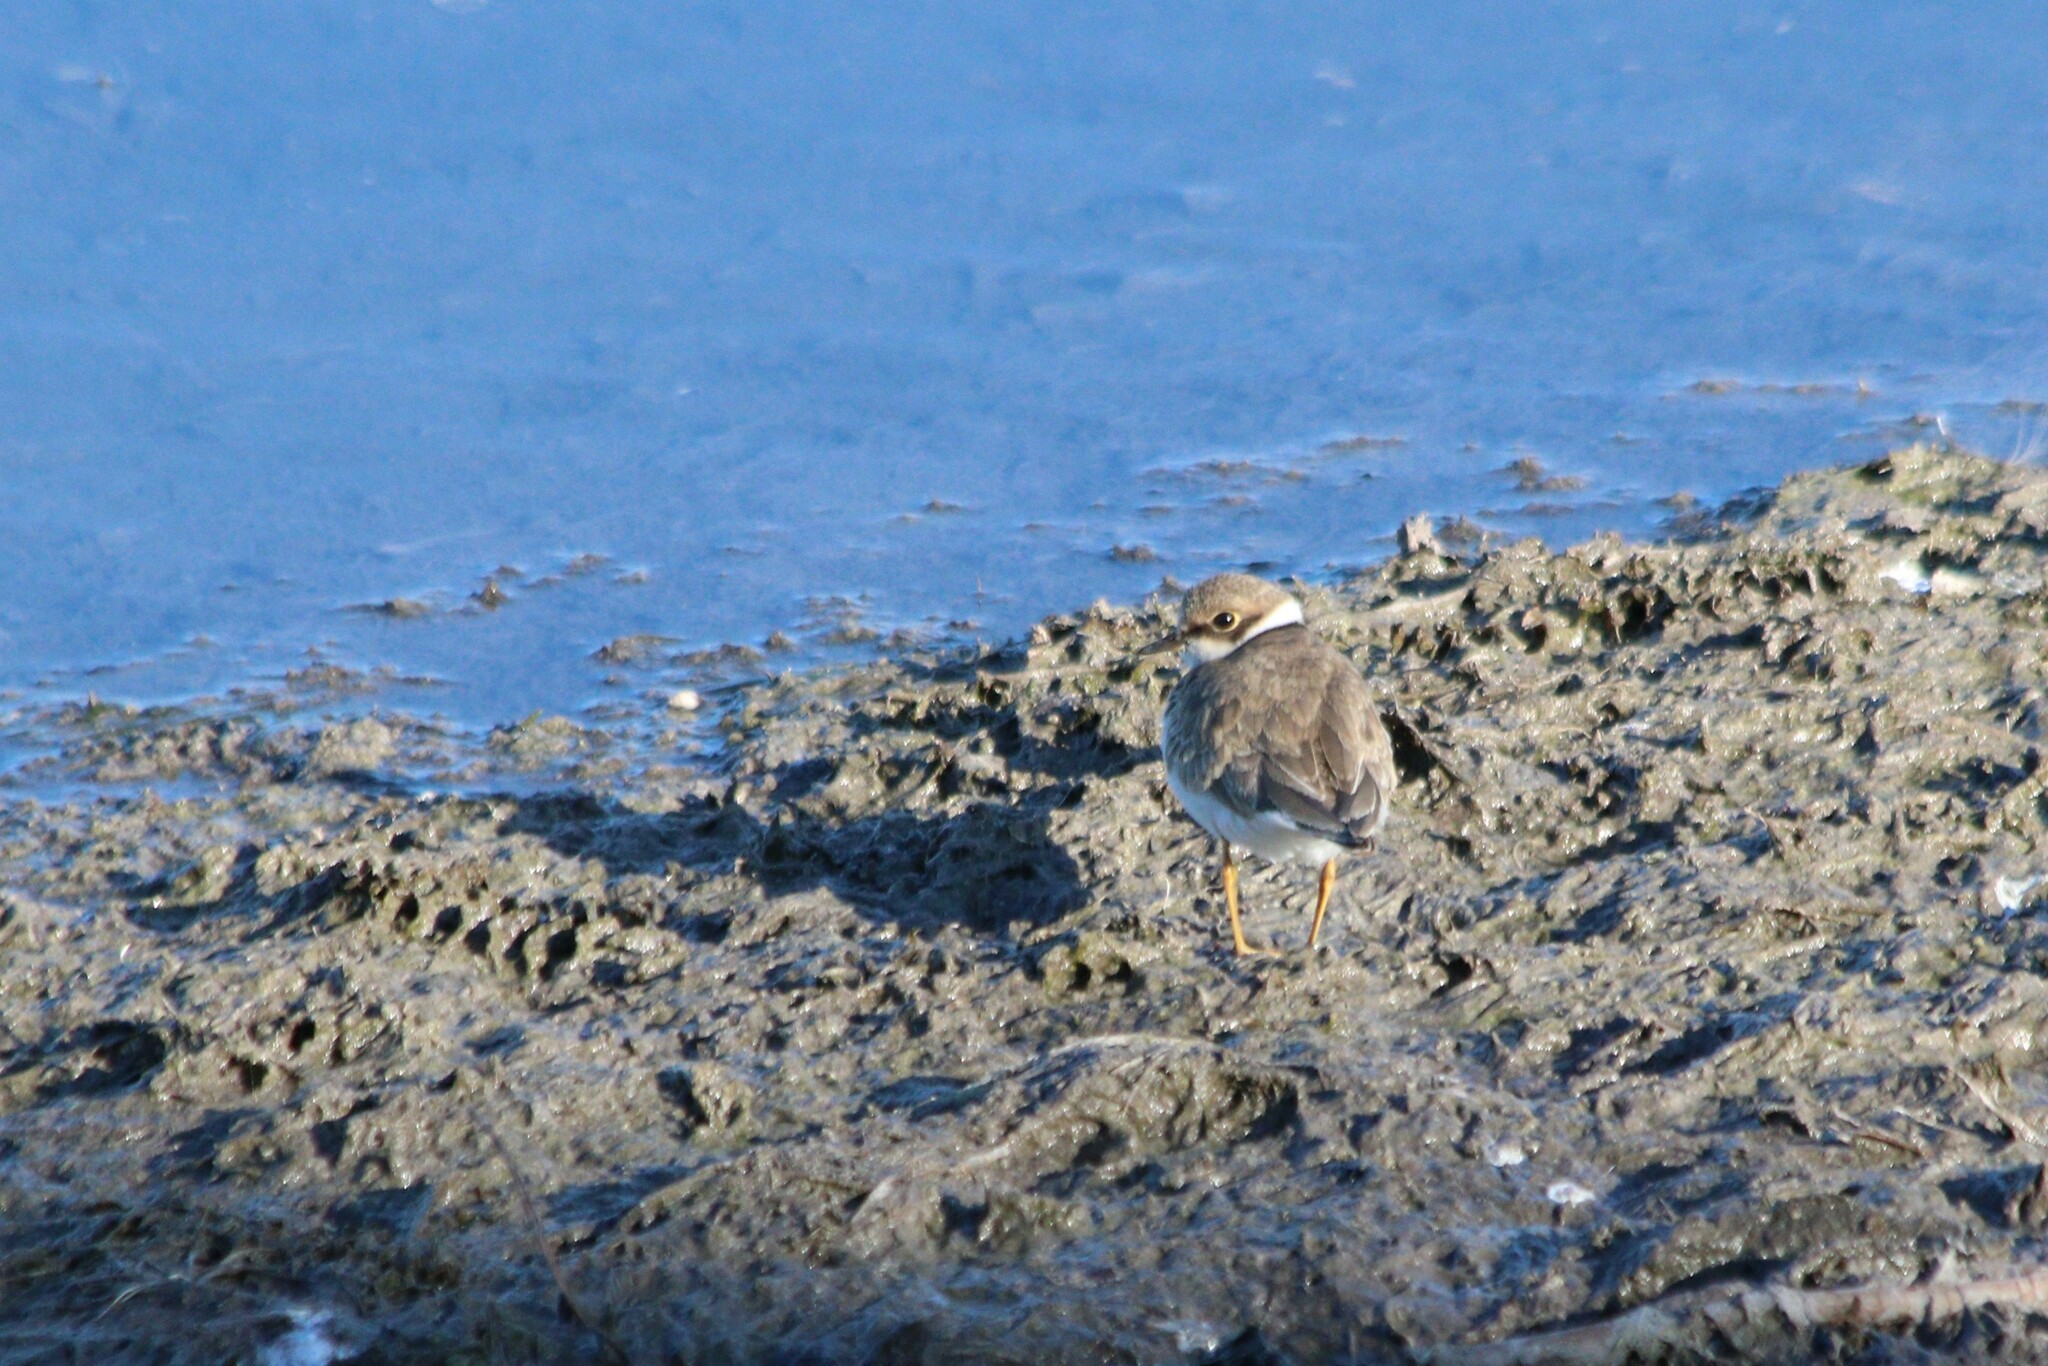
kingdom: Animalia
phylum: Chordata
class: Aves
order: Charadriiformes
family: Charadriidae
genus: Charadrius
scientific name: Charadrius dubius
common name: Little ringed plover
